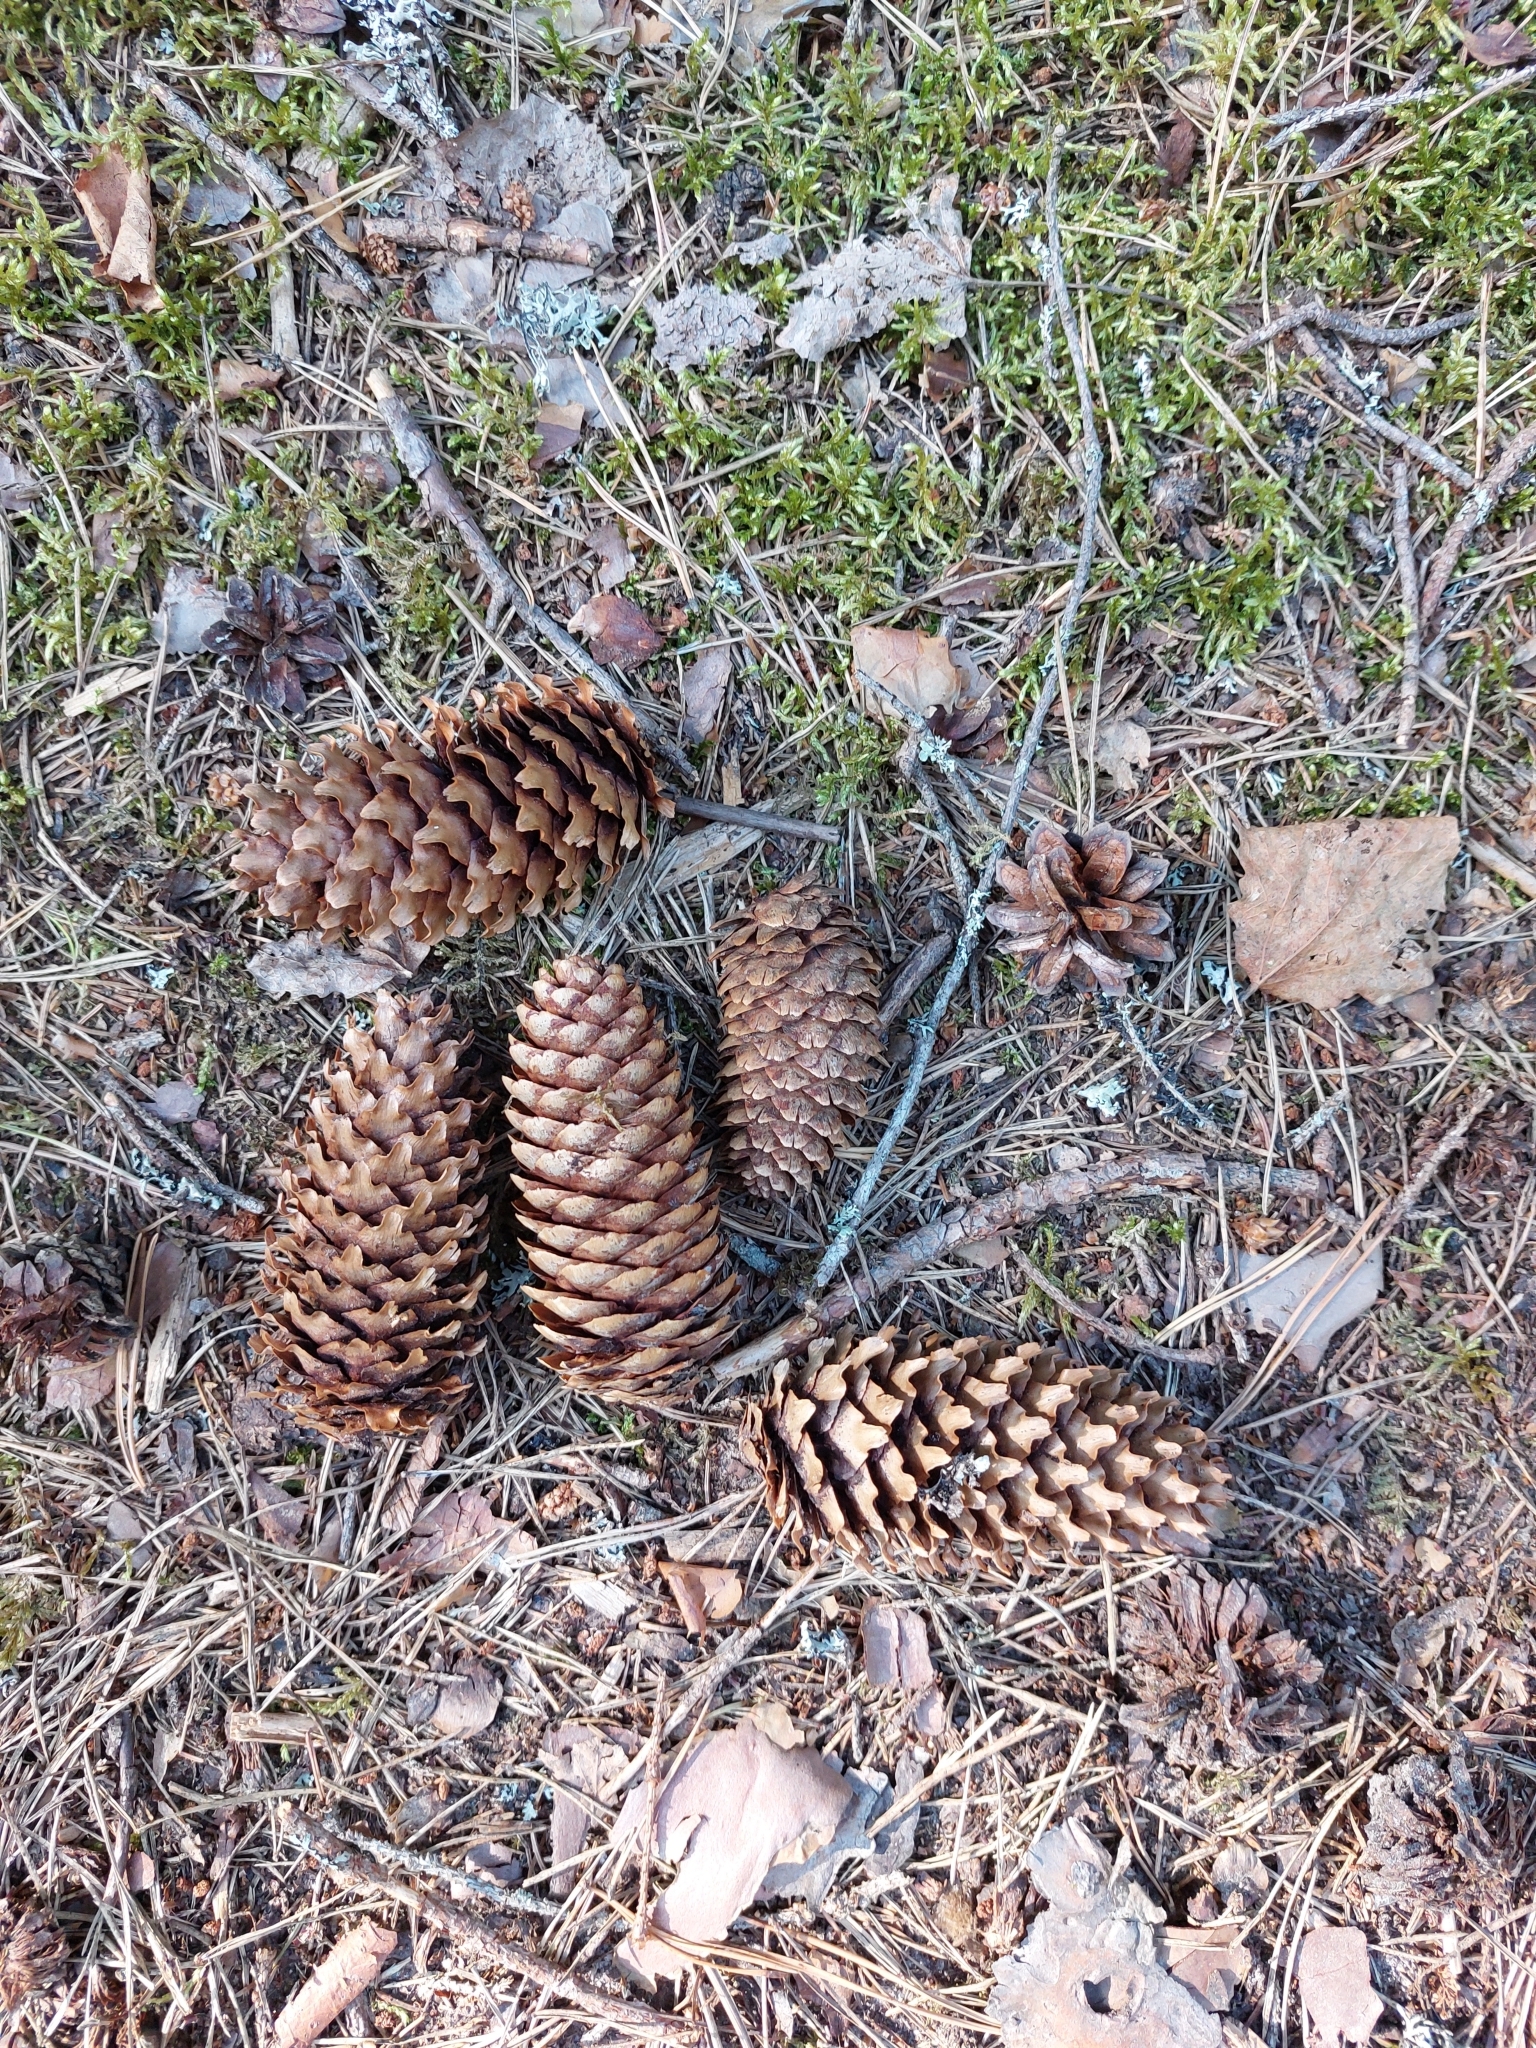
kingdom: Plantae
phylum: Tracheophyta
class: Pinopsida
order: Pinales
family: Pinaceae
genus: Picea
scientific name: Picea abies
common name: Norway spruce
